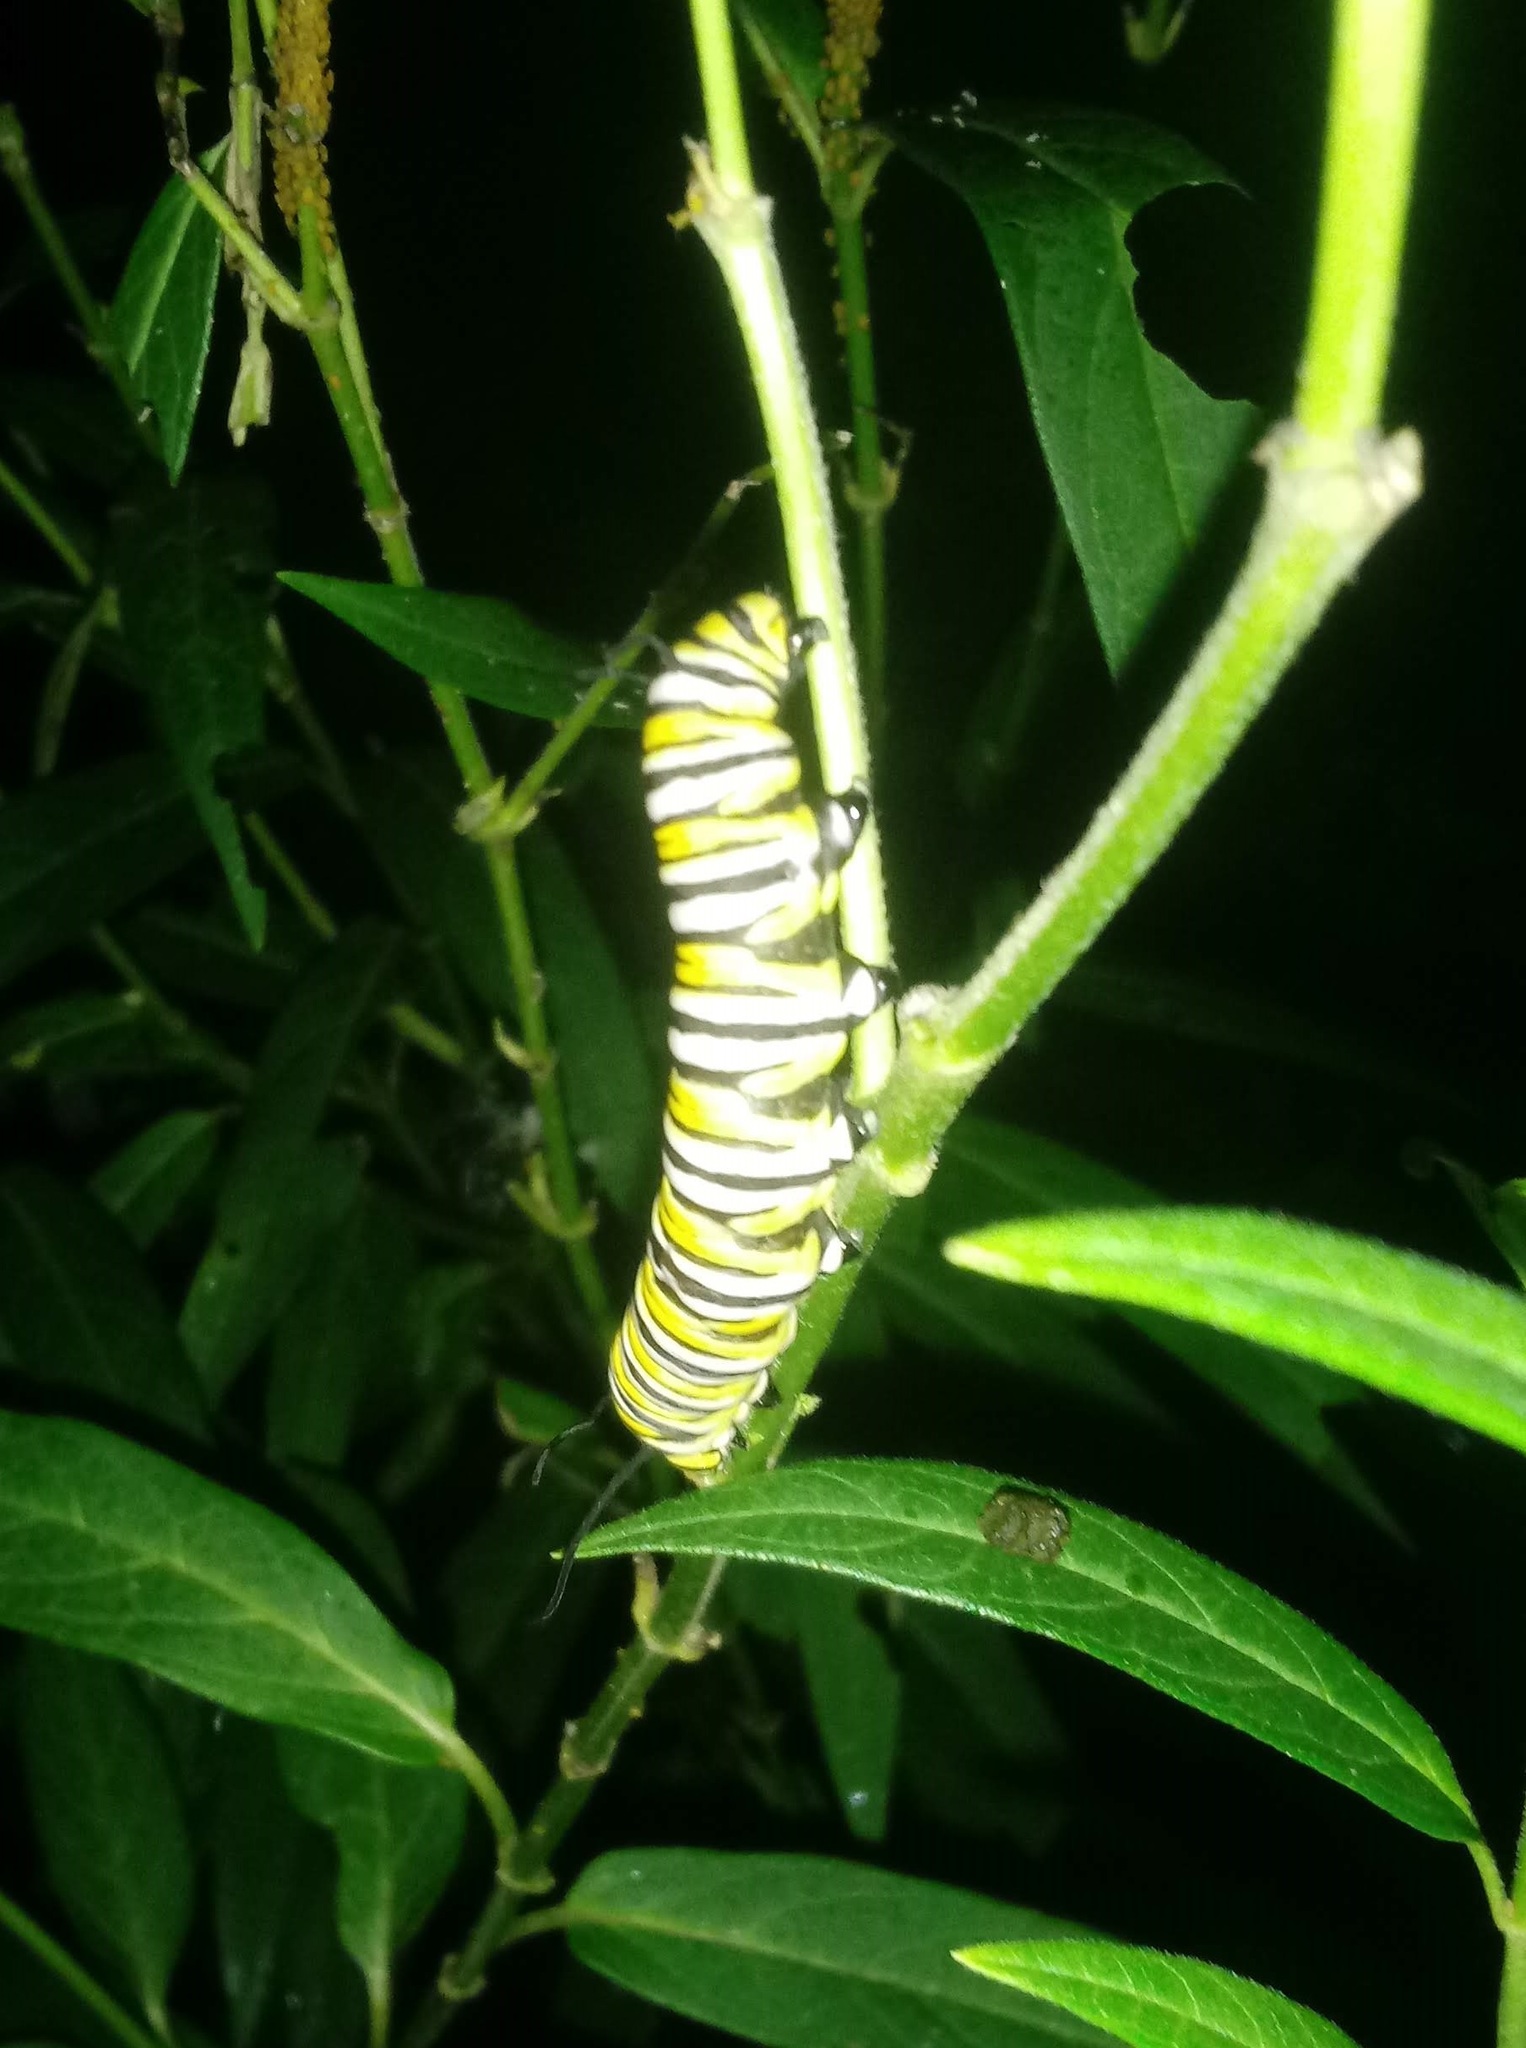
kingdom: Animalia
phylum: Arthropoda
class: Insecta
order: Lepidoptera
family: Nymphalidae
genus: Danaus
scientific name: Danaus plexippus
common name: Monarch
